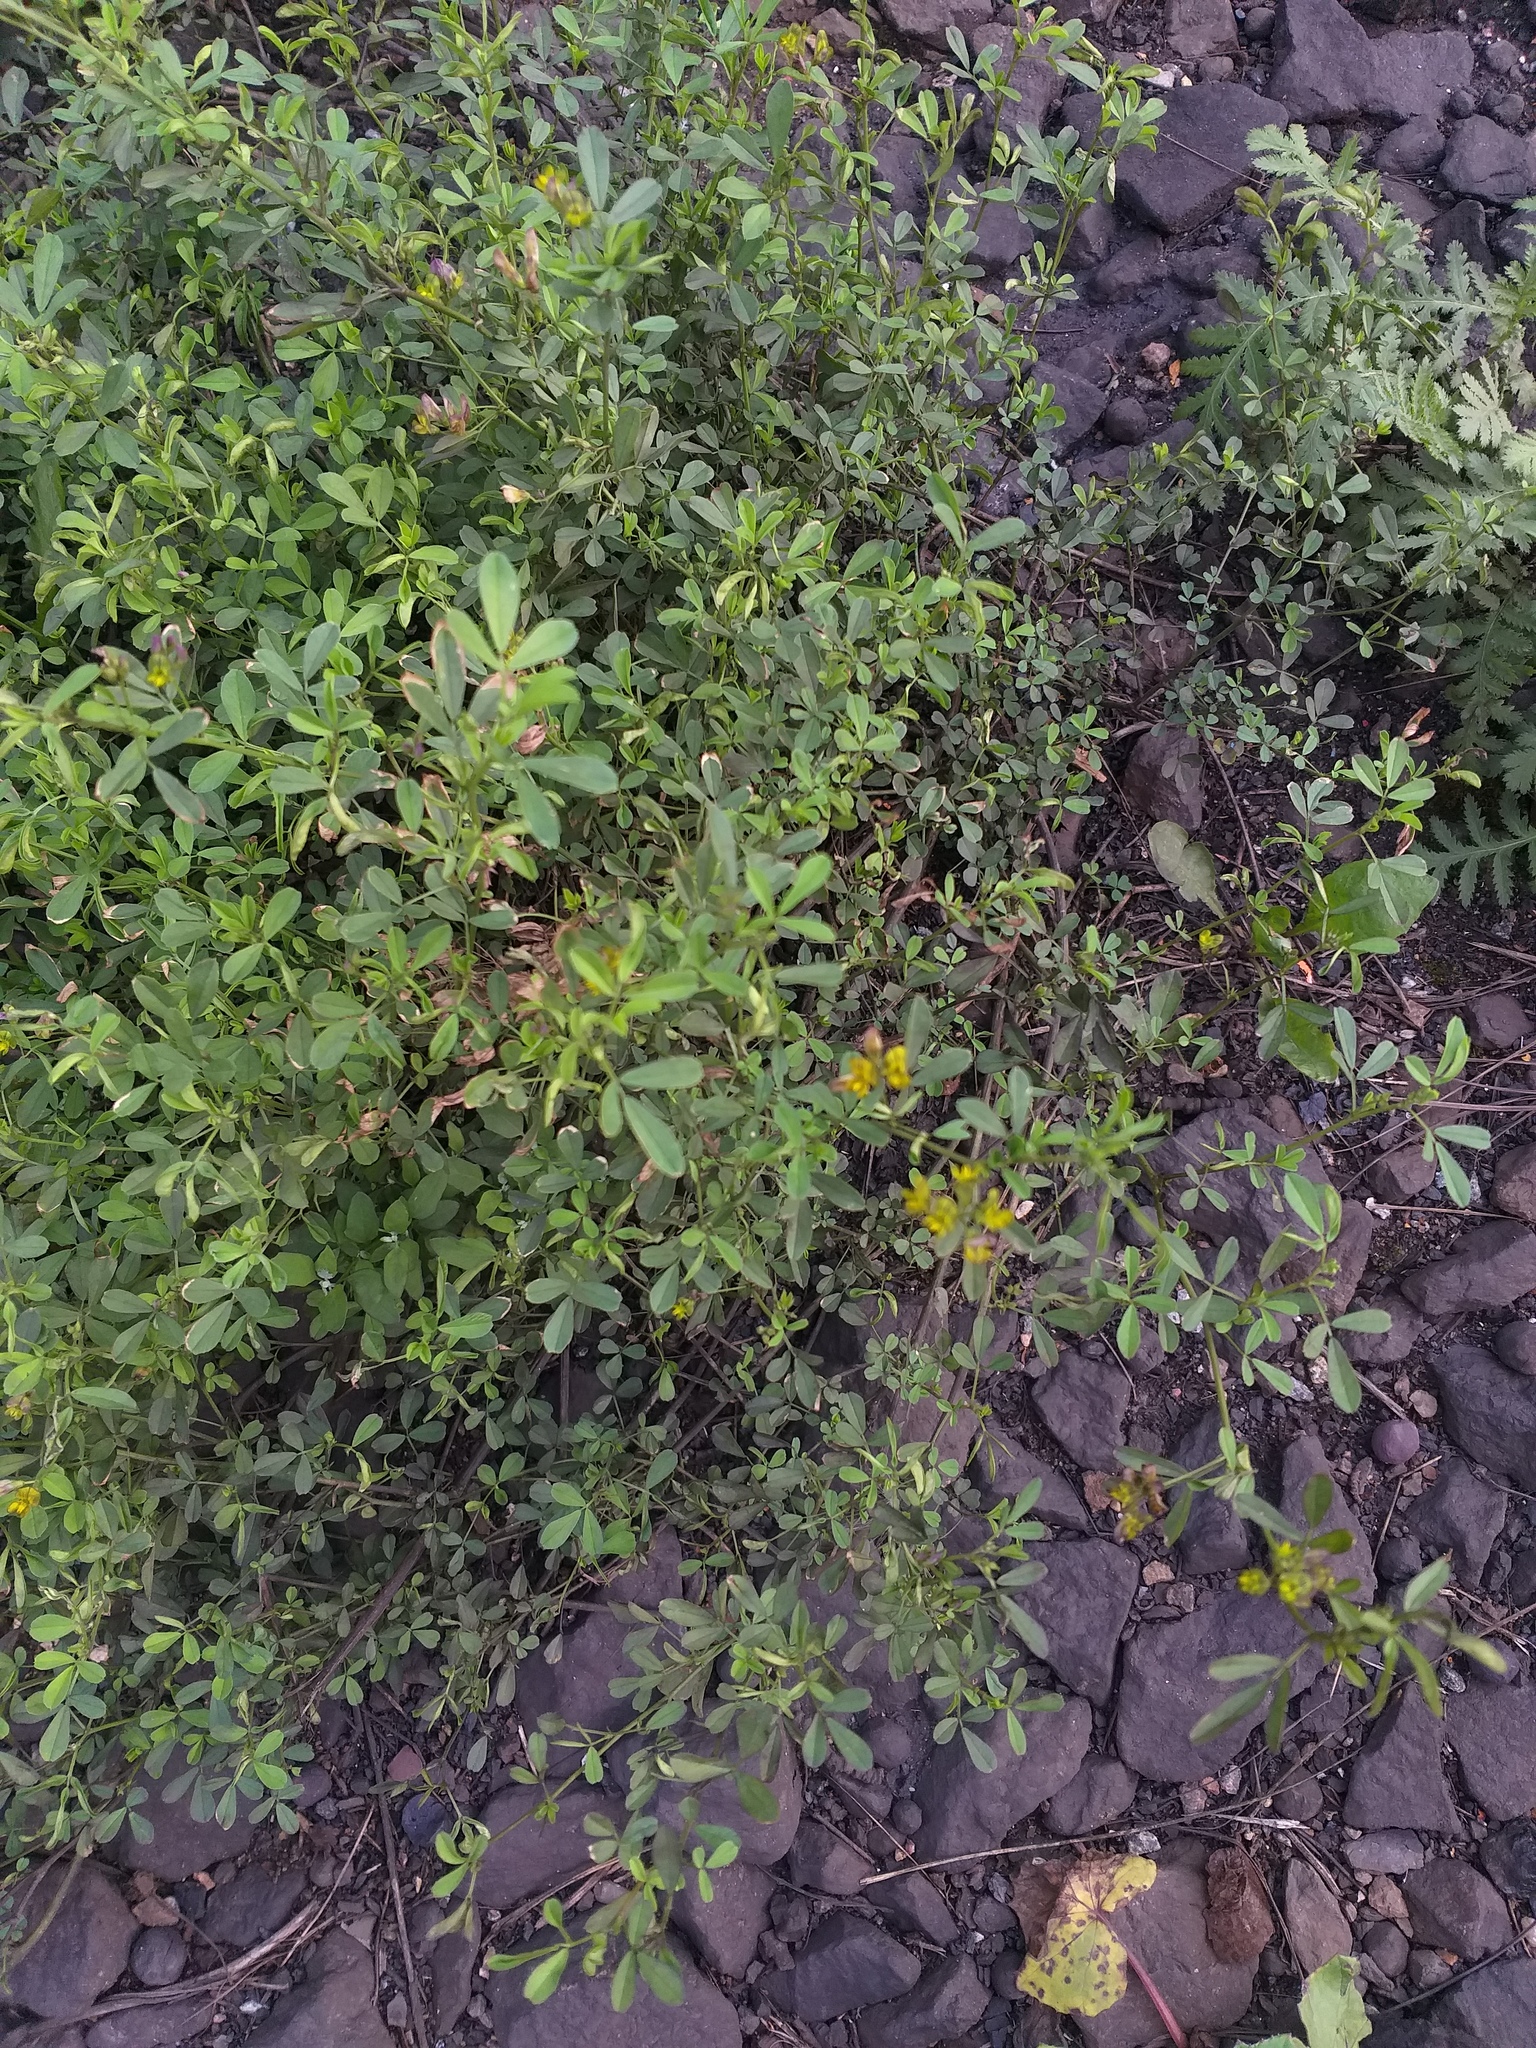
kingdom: Plantae
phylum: Tracheophyta
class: Magnoliopsida
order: Fabales
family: Fabaceae
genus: Medicago
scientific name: Medicago varia
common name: Sand lucerne
